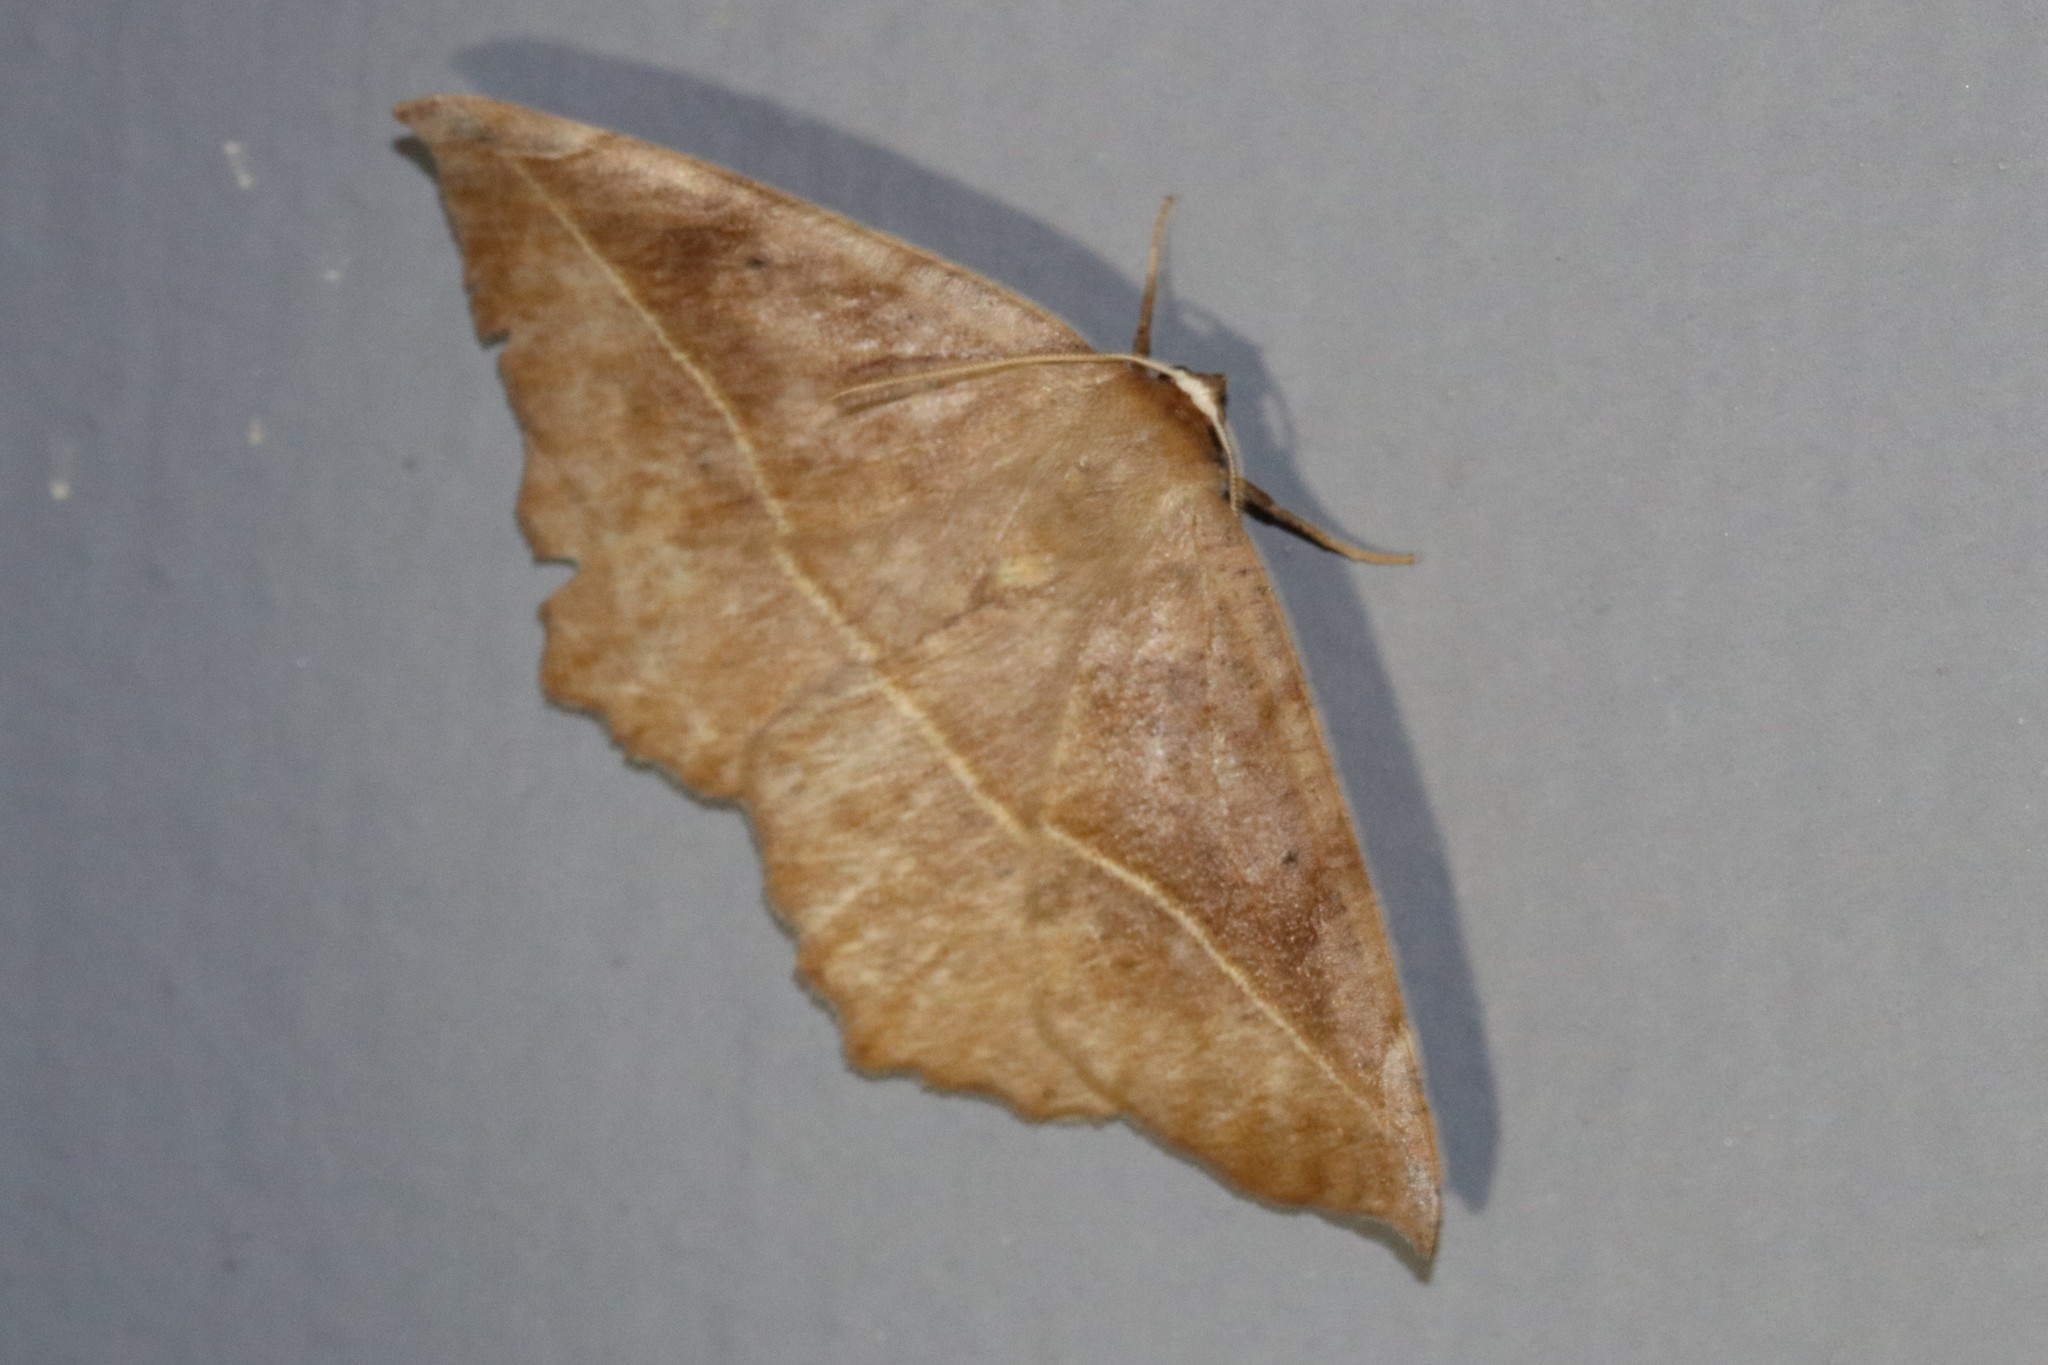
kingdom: Animalia
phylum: Arthropoda
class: Insecta
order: Lepidoptera
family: Geometridae
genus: Eutrapela
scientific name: Eutrapela clemataria
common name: Curved-toothed geometer
